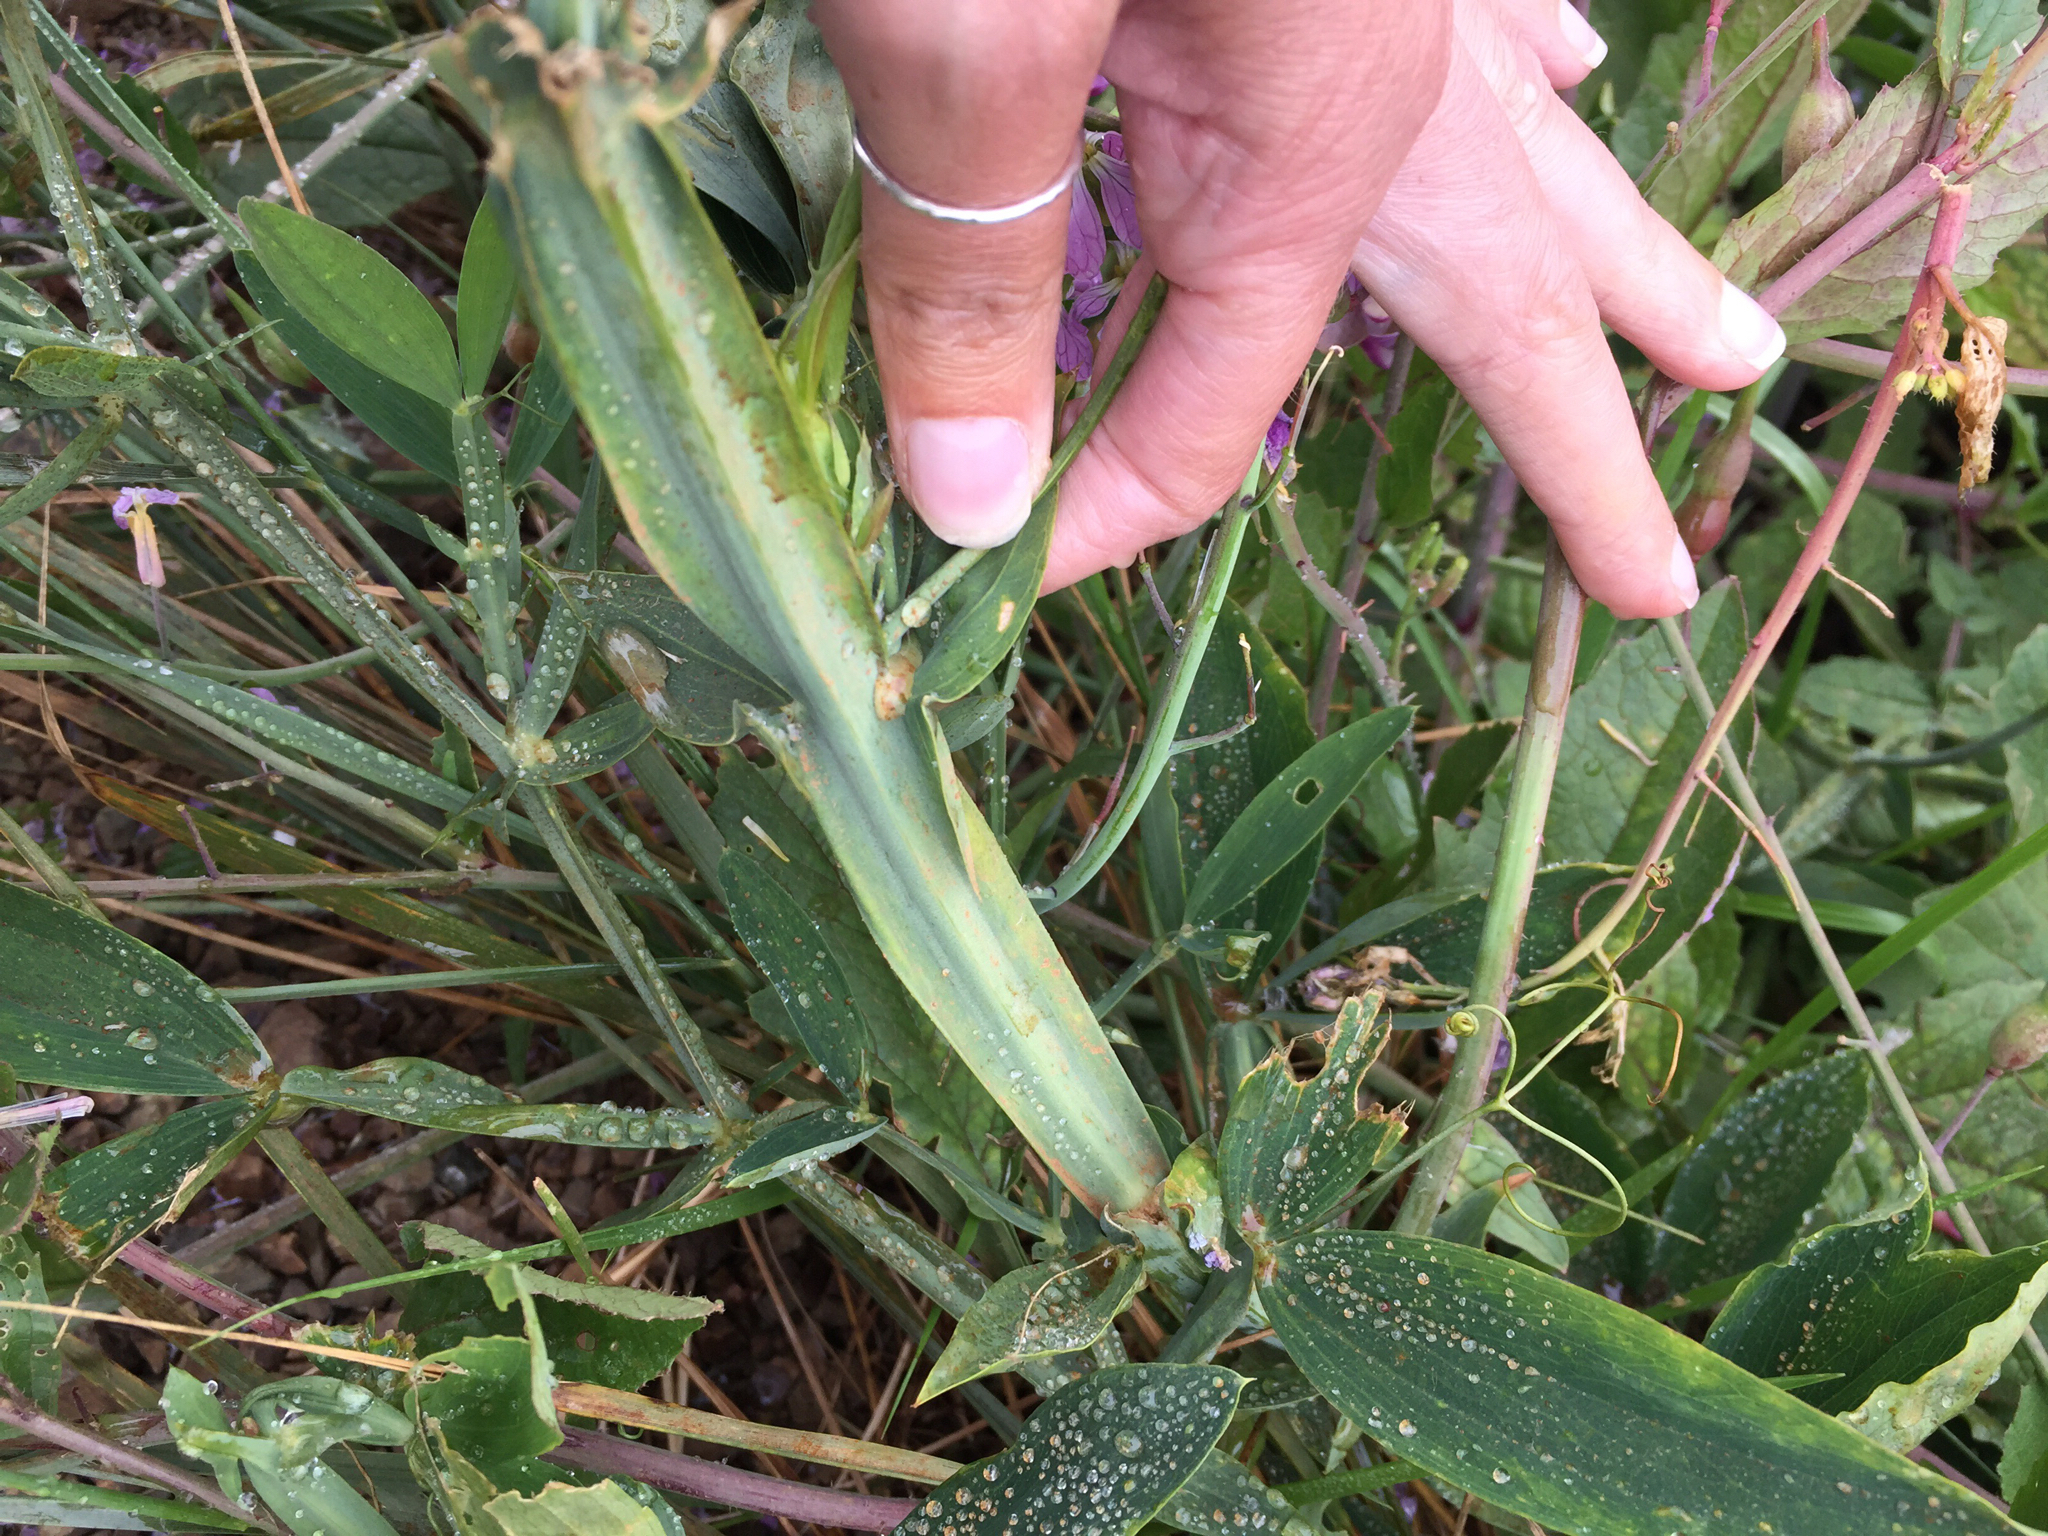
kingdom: Plantae
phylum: Tracheophyta
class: Magnoliopsida
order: Fabales
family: Fabaceae
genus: Lathyrus
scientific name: Lathyrus latifolius
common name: Perennial pea
